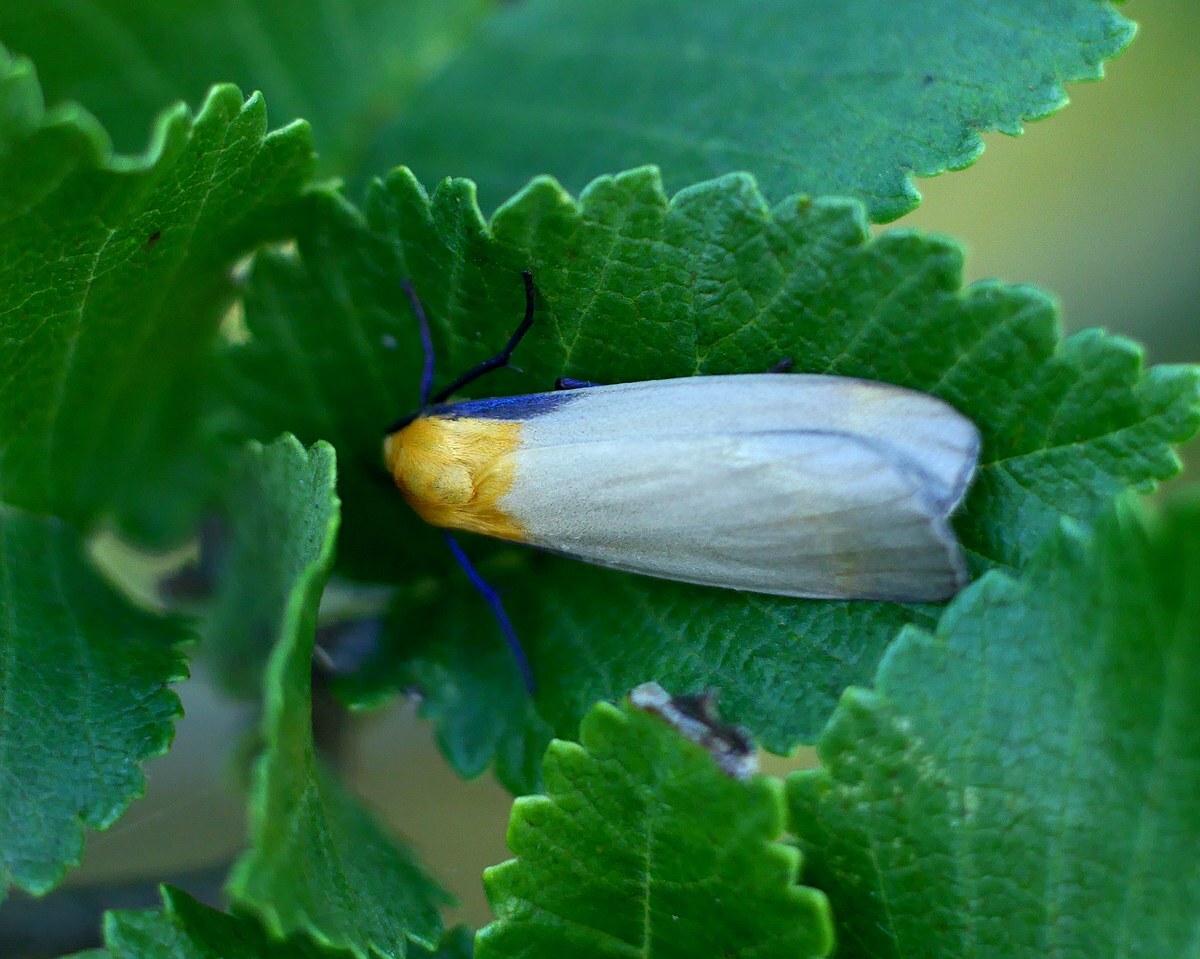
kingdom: Animalia
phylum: Arthropoda
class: Insecta
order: Lepidoptera
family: Erebidae
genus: Lithosia
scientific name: Lithosia quadra
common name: Four-spotted footman
